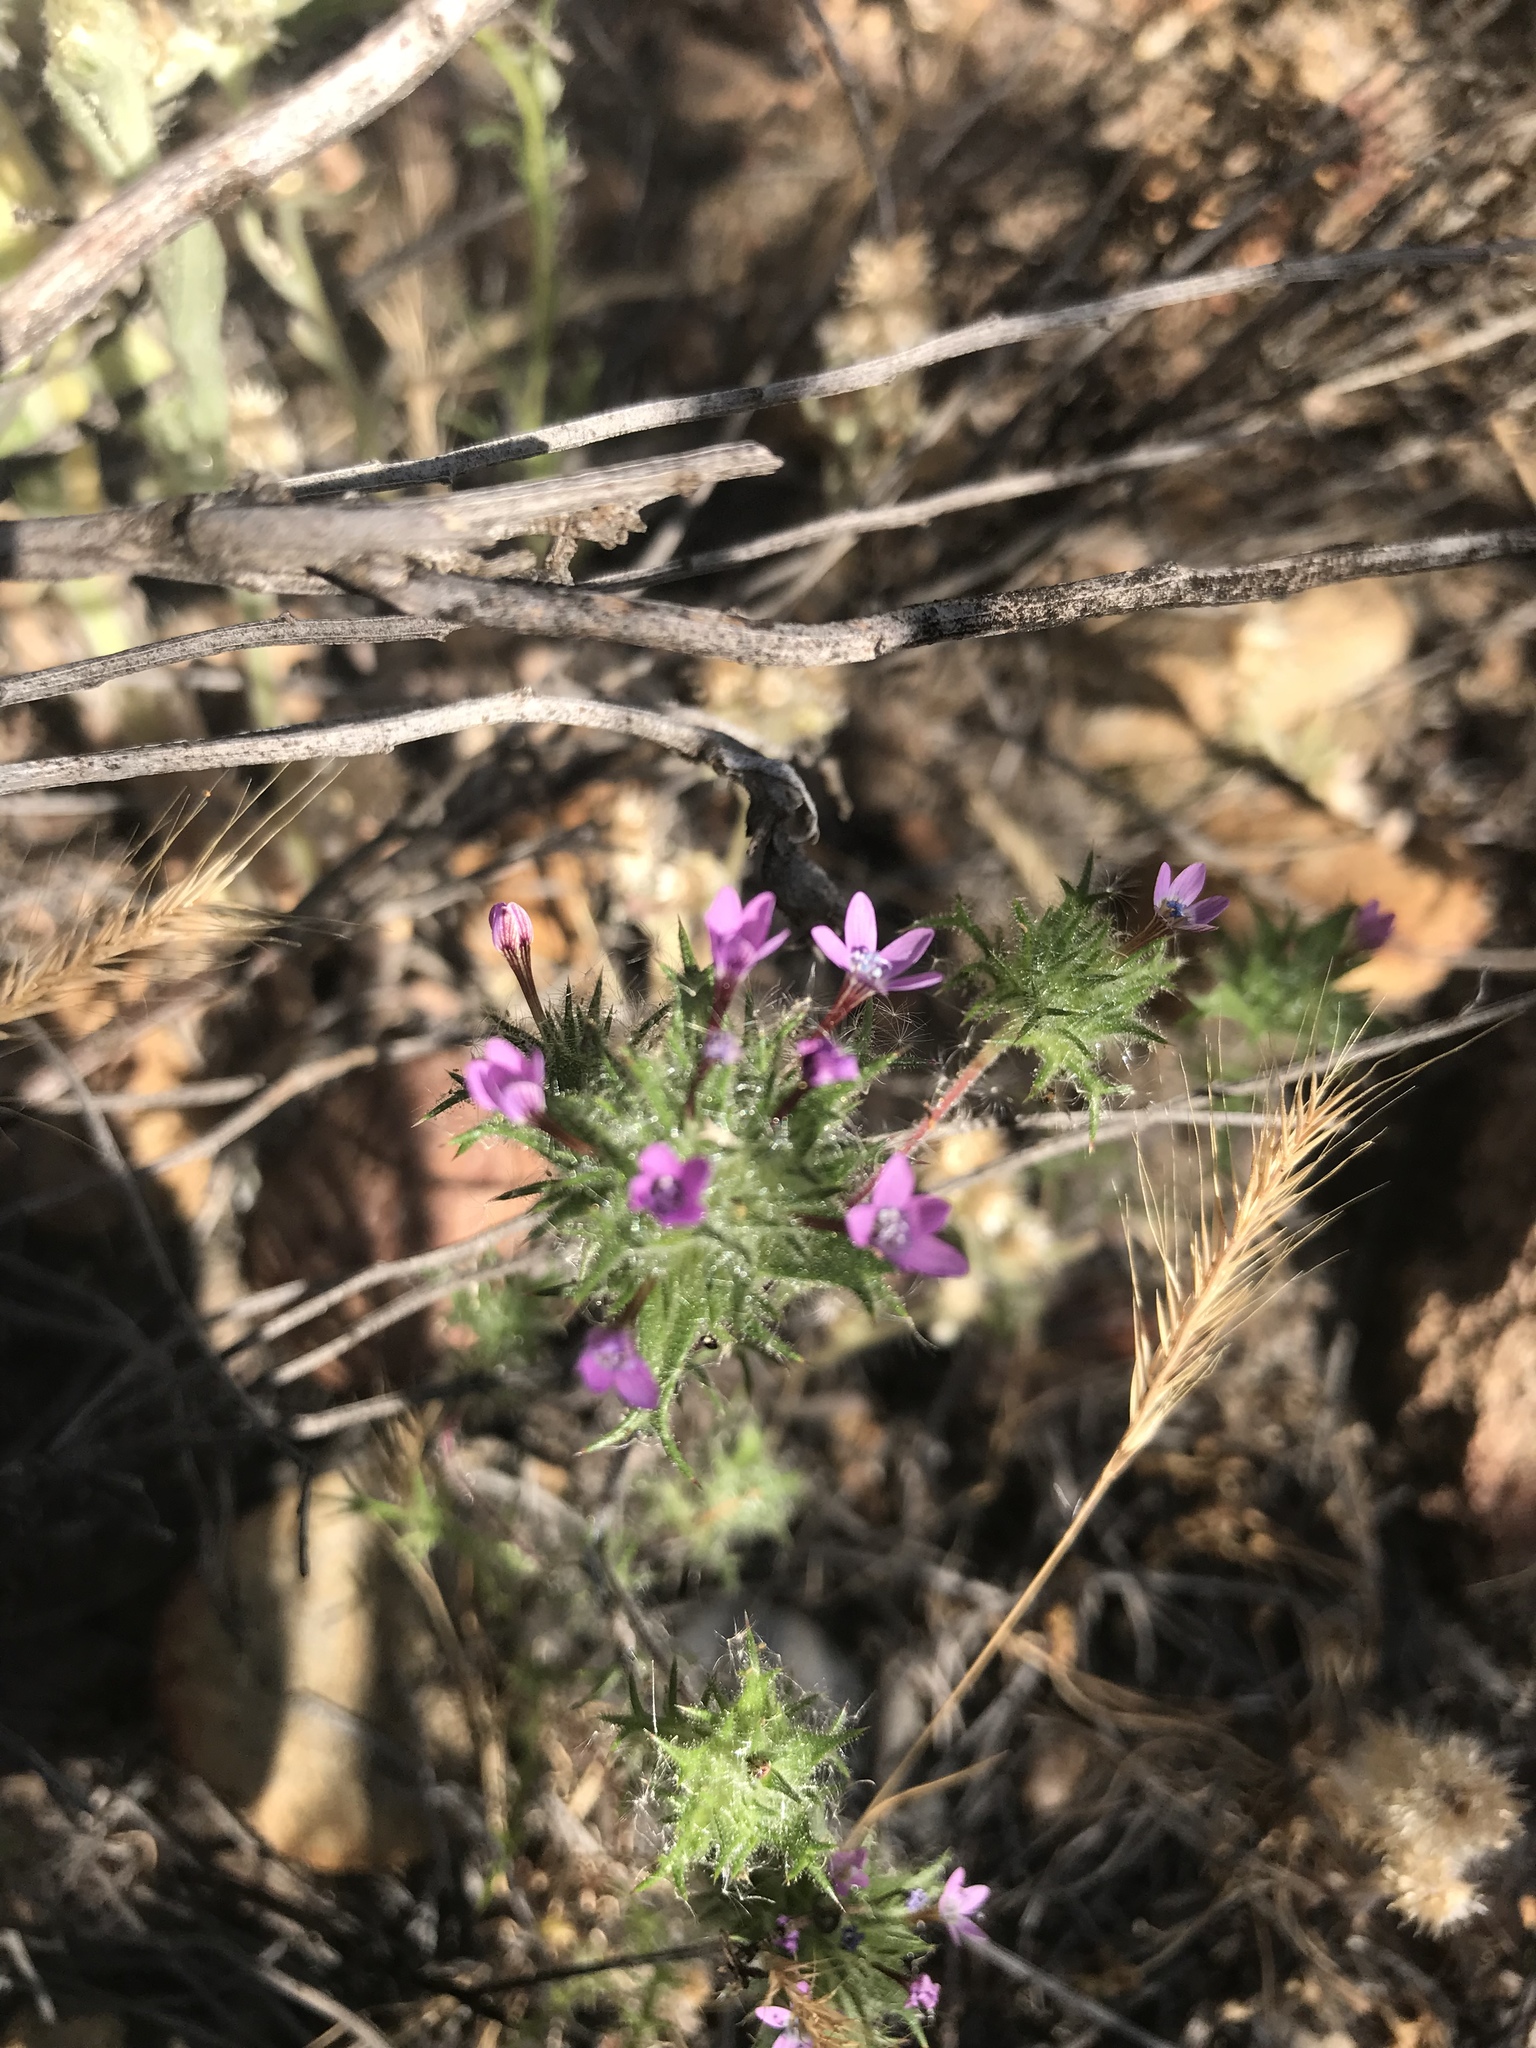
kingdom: Plantae
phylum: Tracheophyta
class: Magnoliopsida
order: Ericales
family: Polemoniaceae
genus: Navarretia
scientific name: Navarretia hamata
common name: Hooked navarretia
